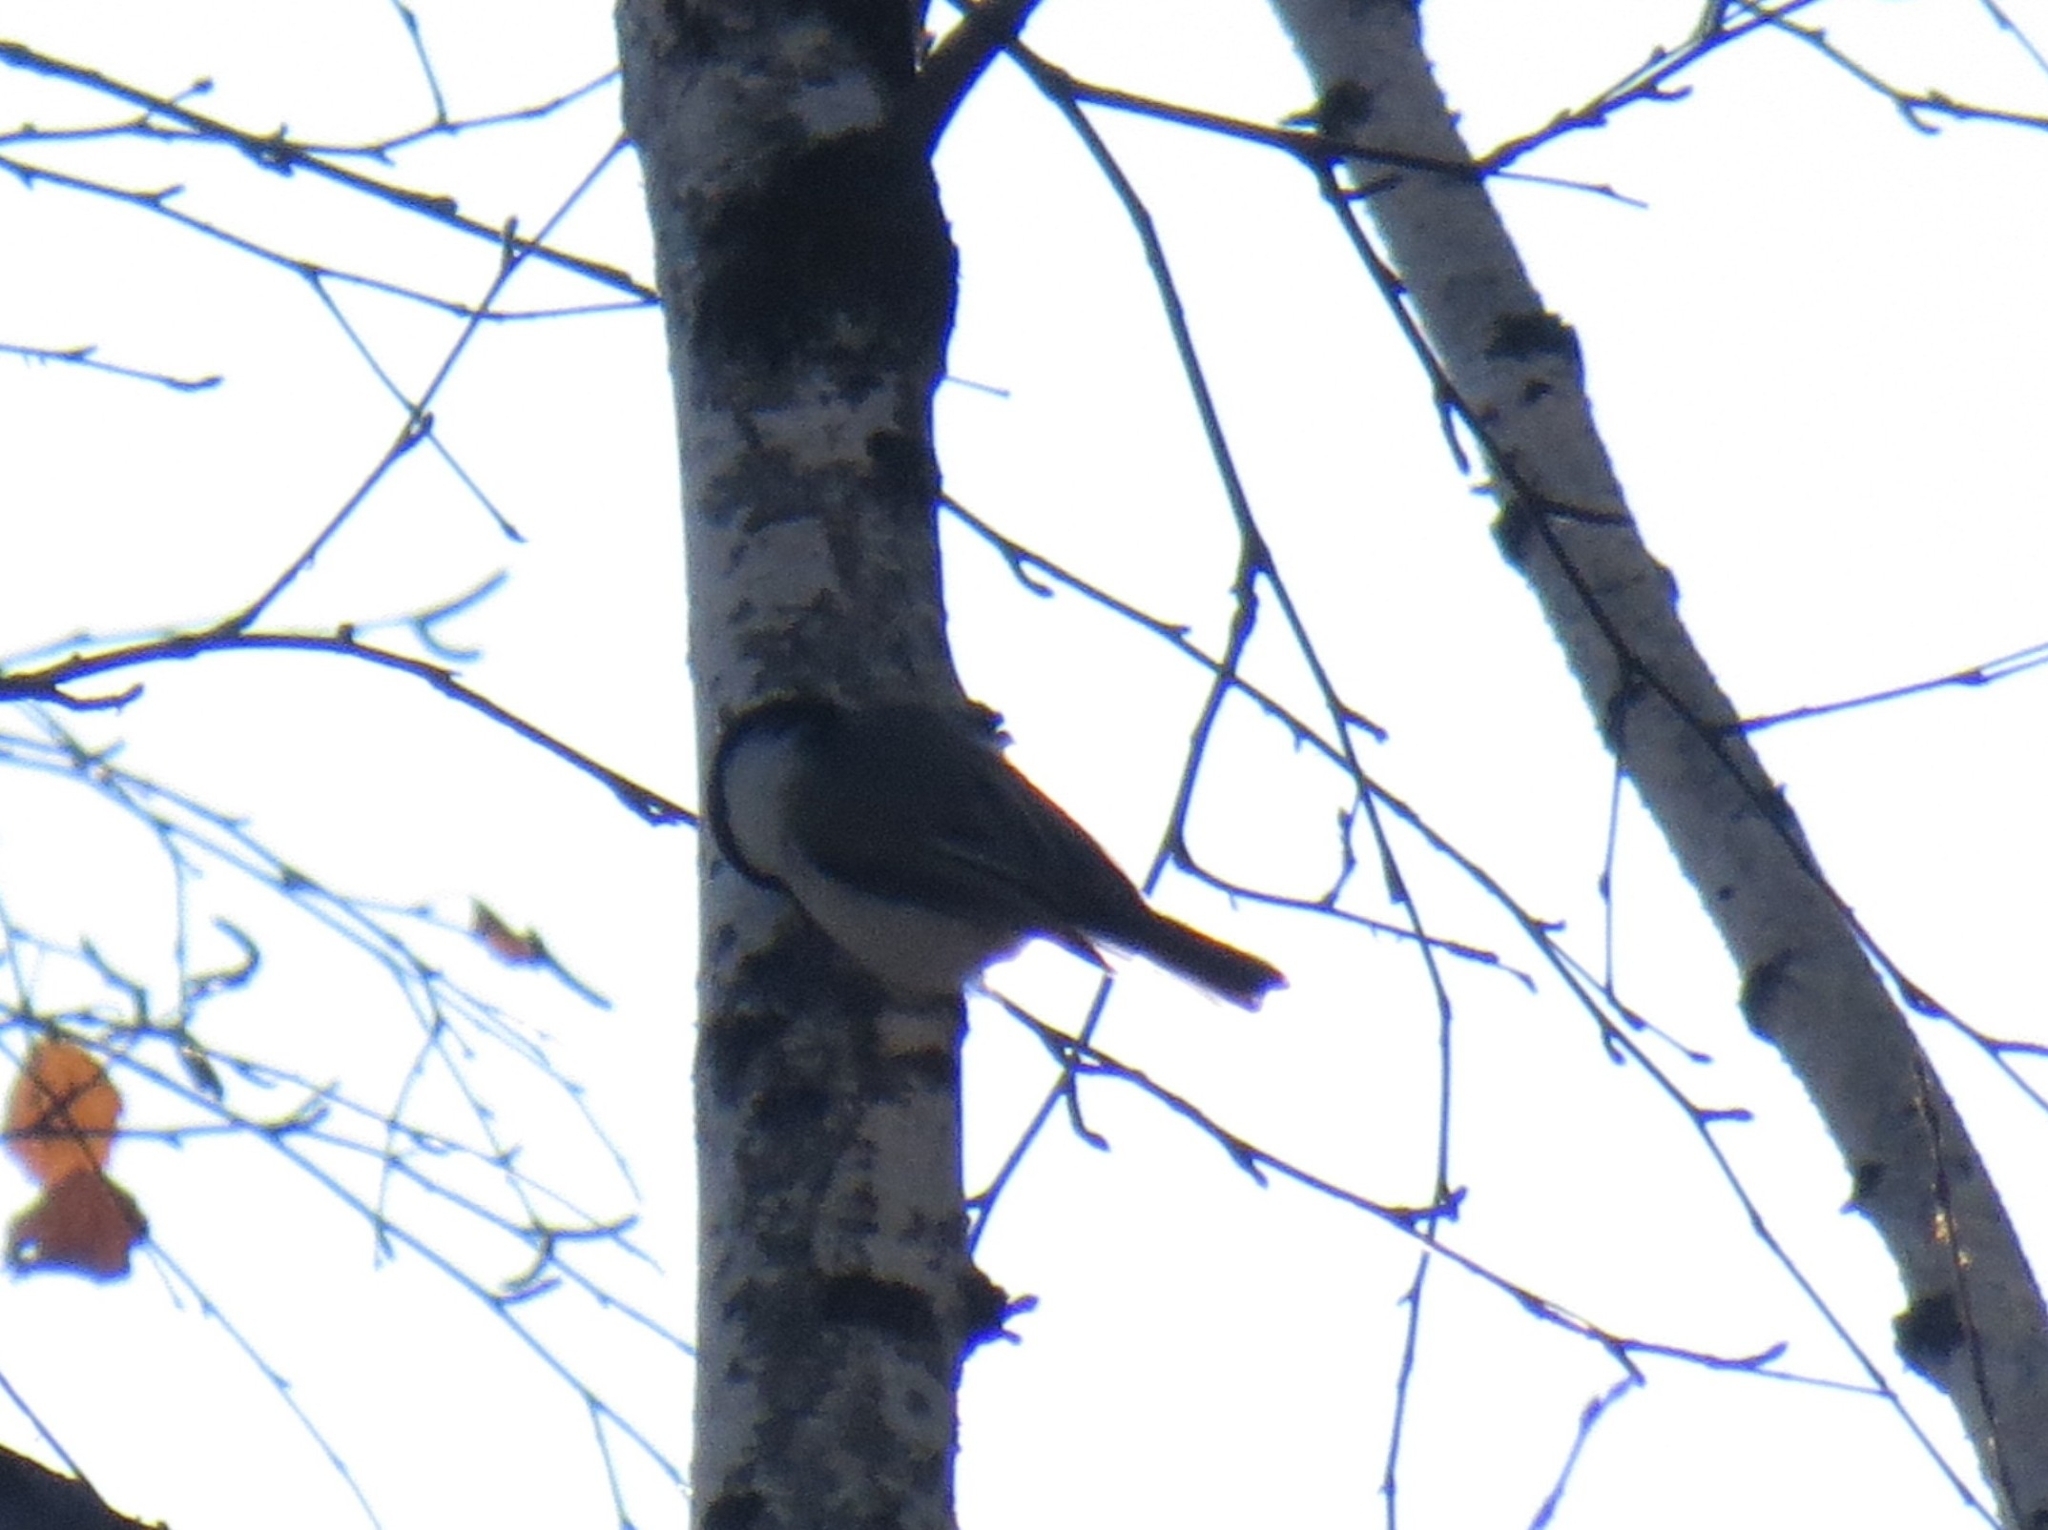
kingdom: Animalia
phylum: Chordata
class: Aves
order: Passeriformes
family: Paridae
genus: Poecile
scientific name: Poecile montanus
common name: Willow tit
